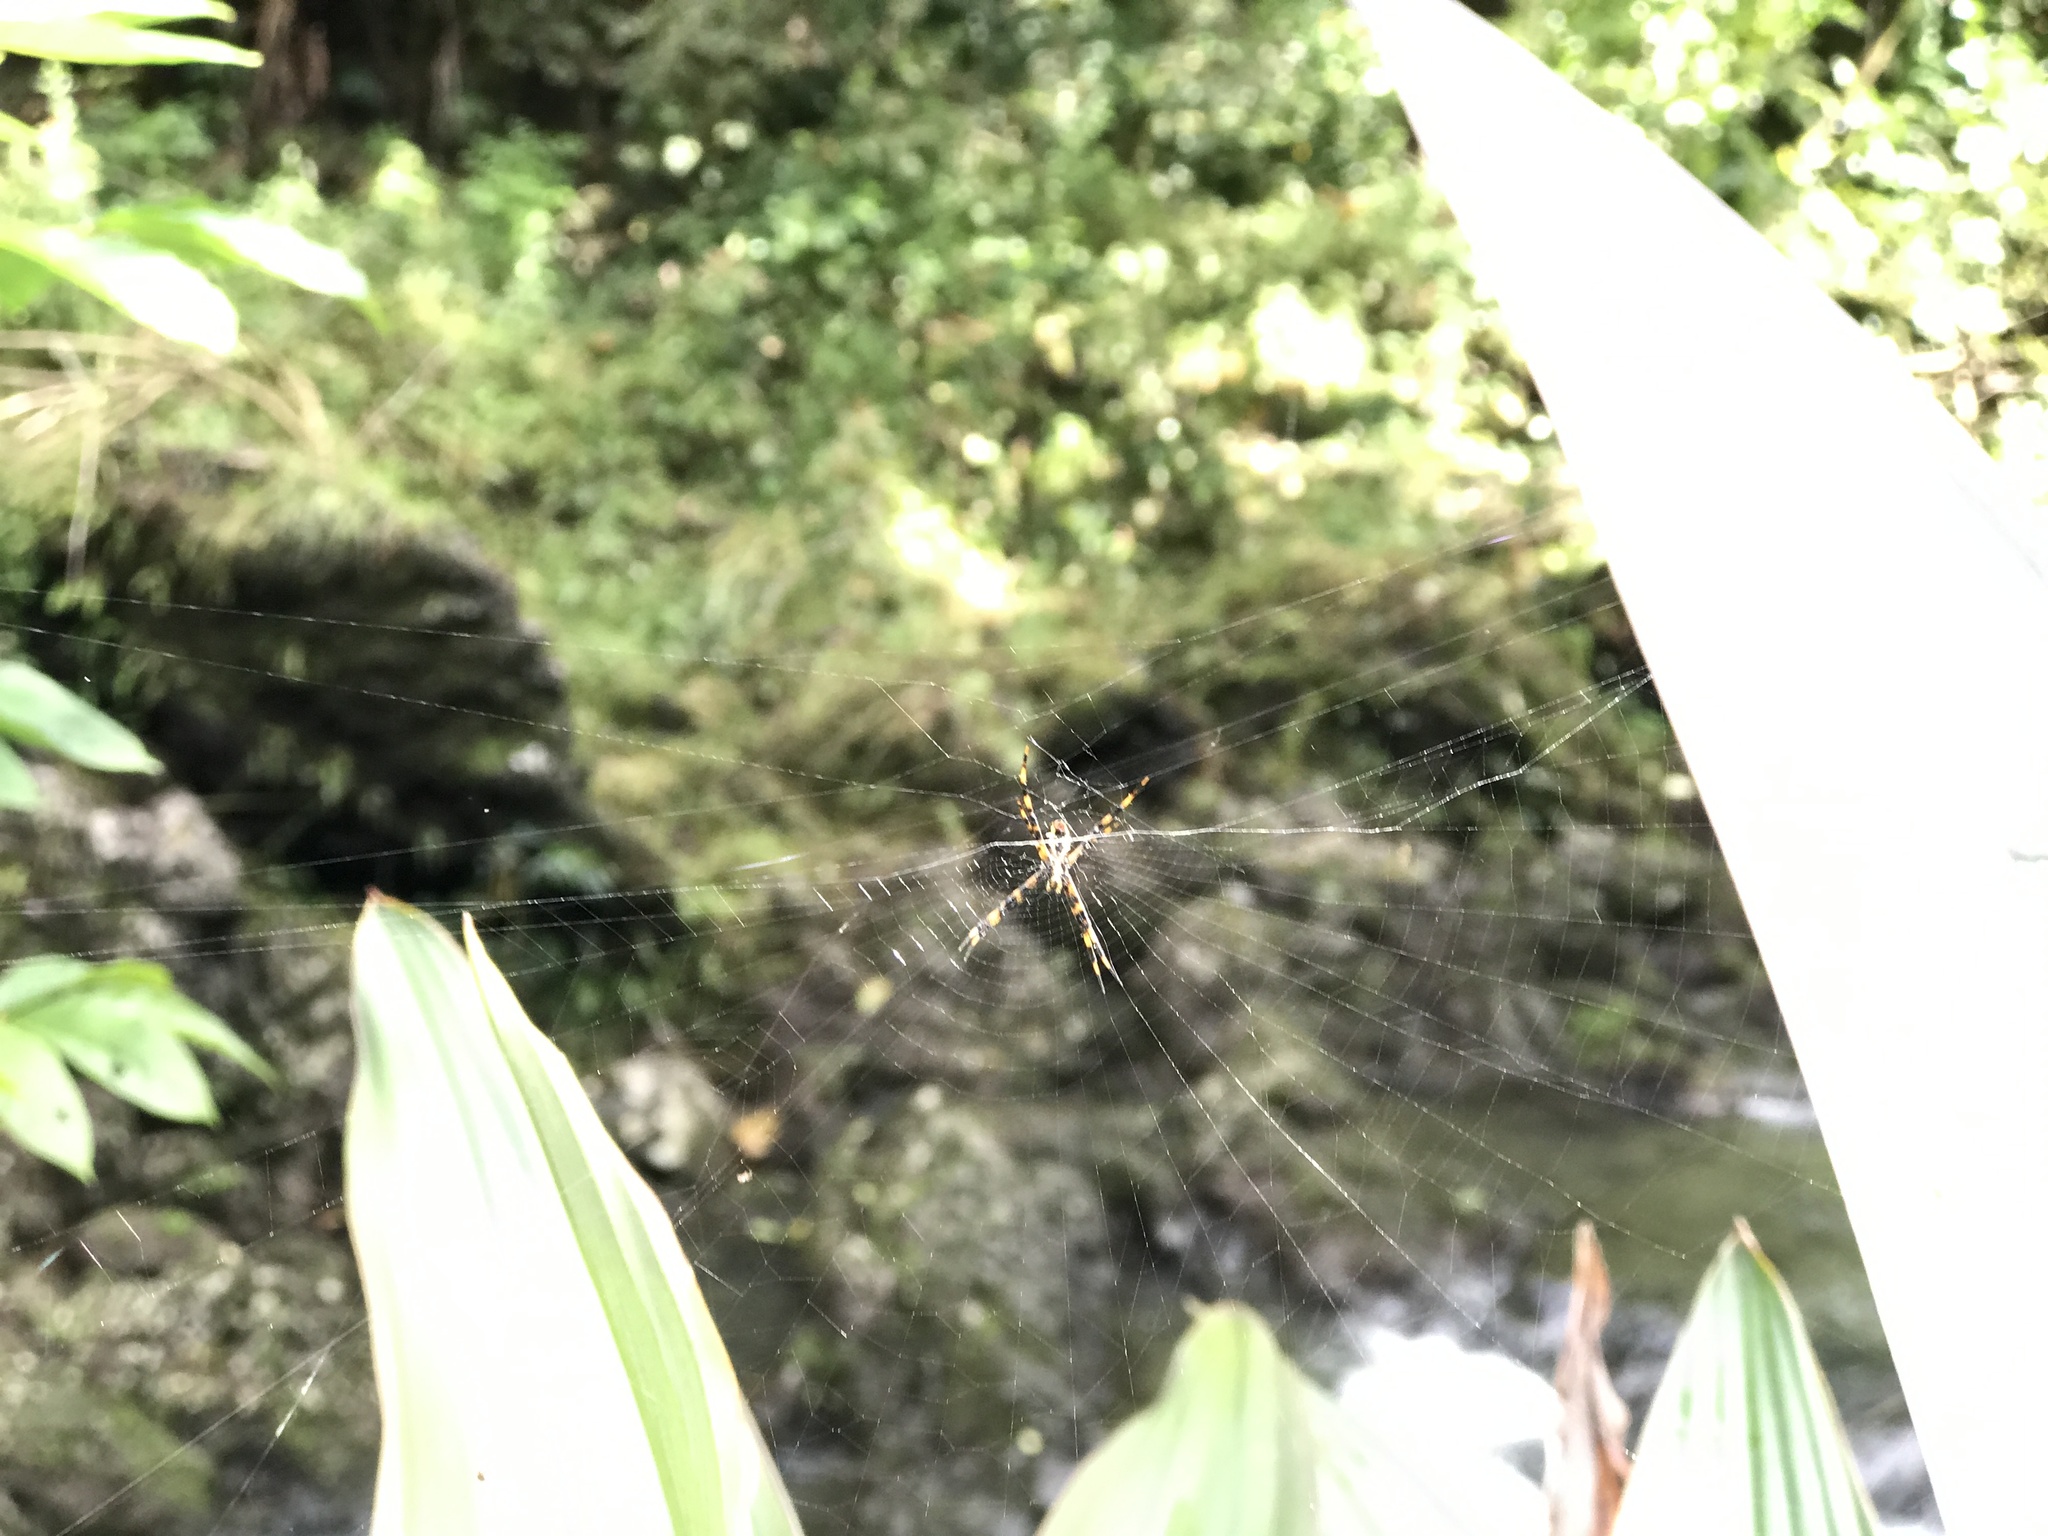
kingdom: Animalia
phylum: Arthropoda
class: Arachnida
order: Araneae
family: Araneidae
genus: Argiope
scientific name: Argiope appensa
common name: Garden spider
